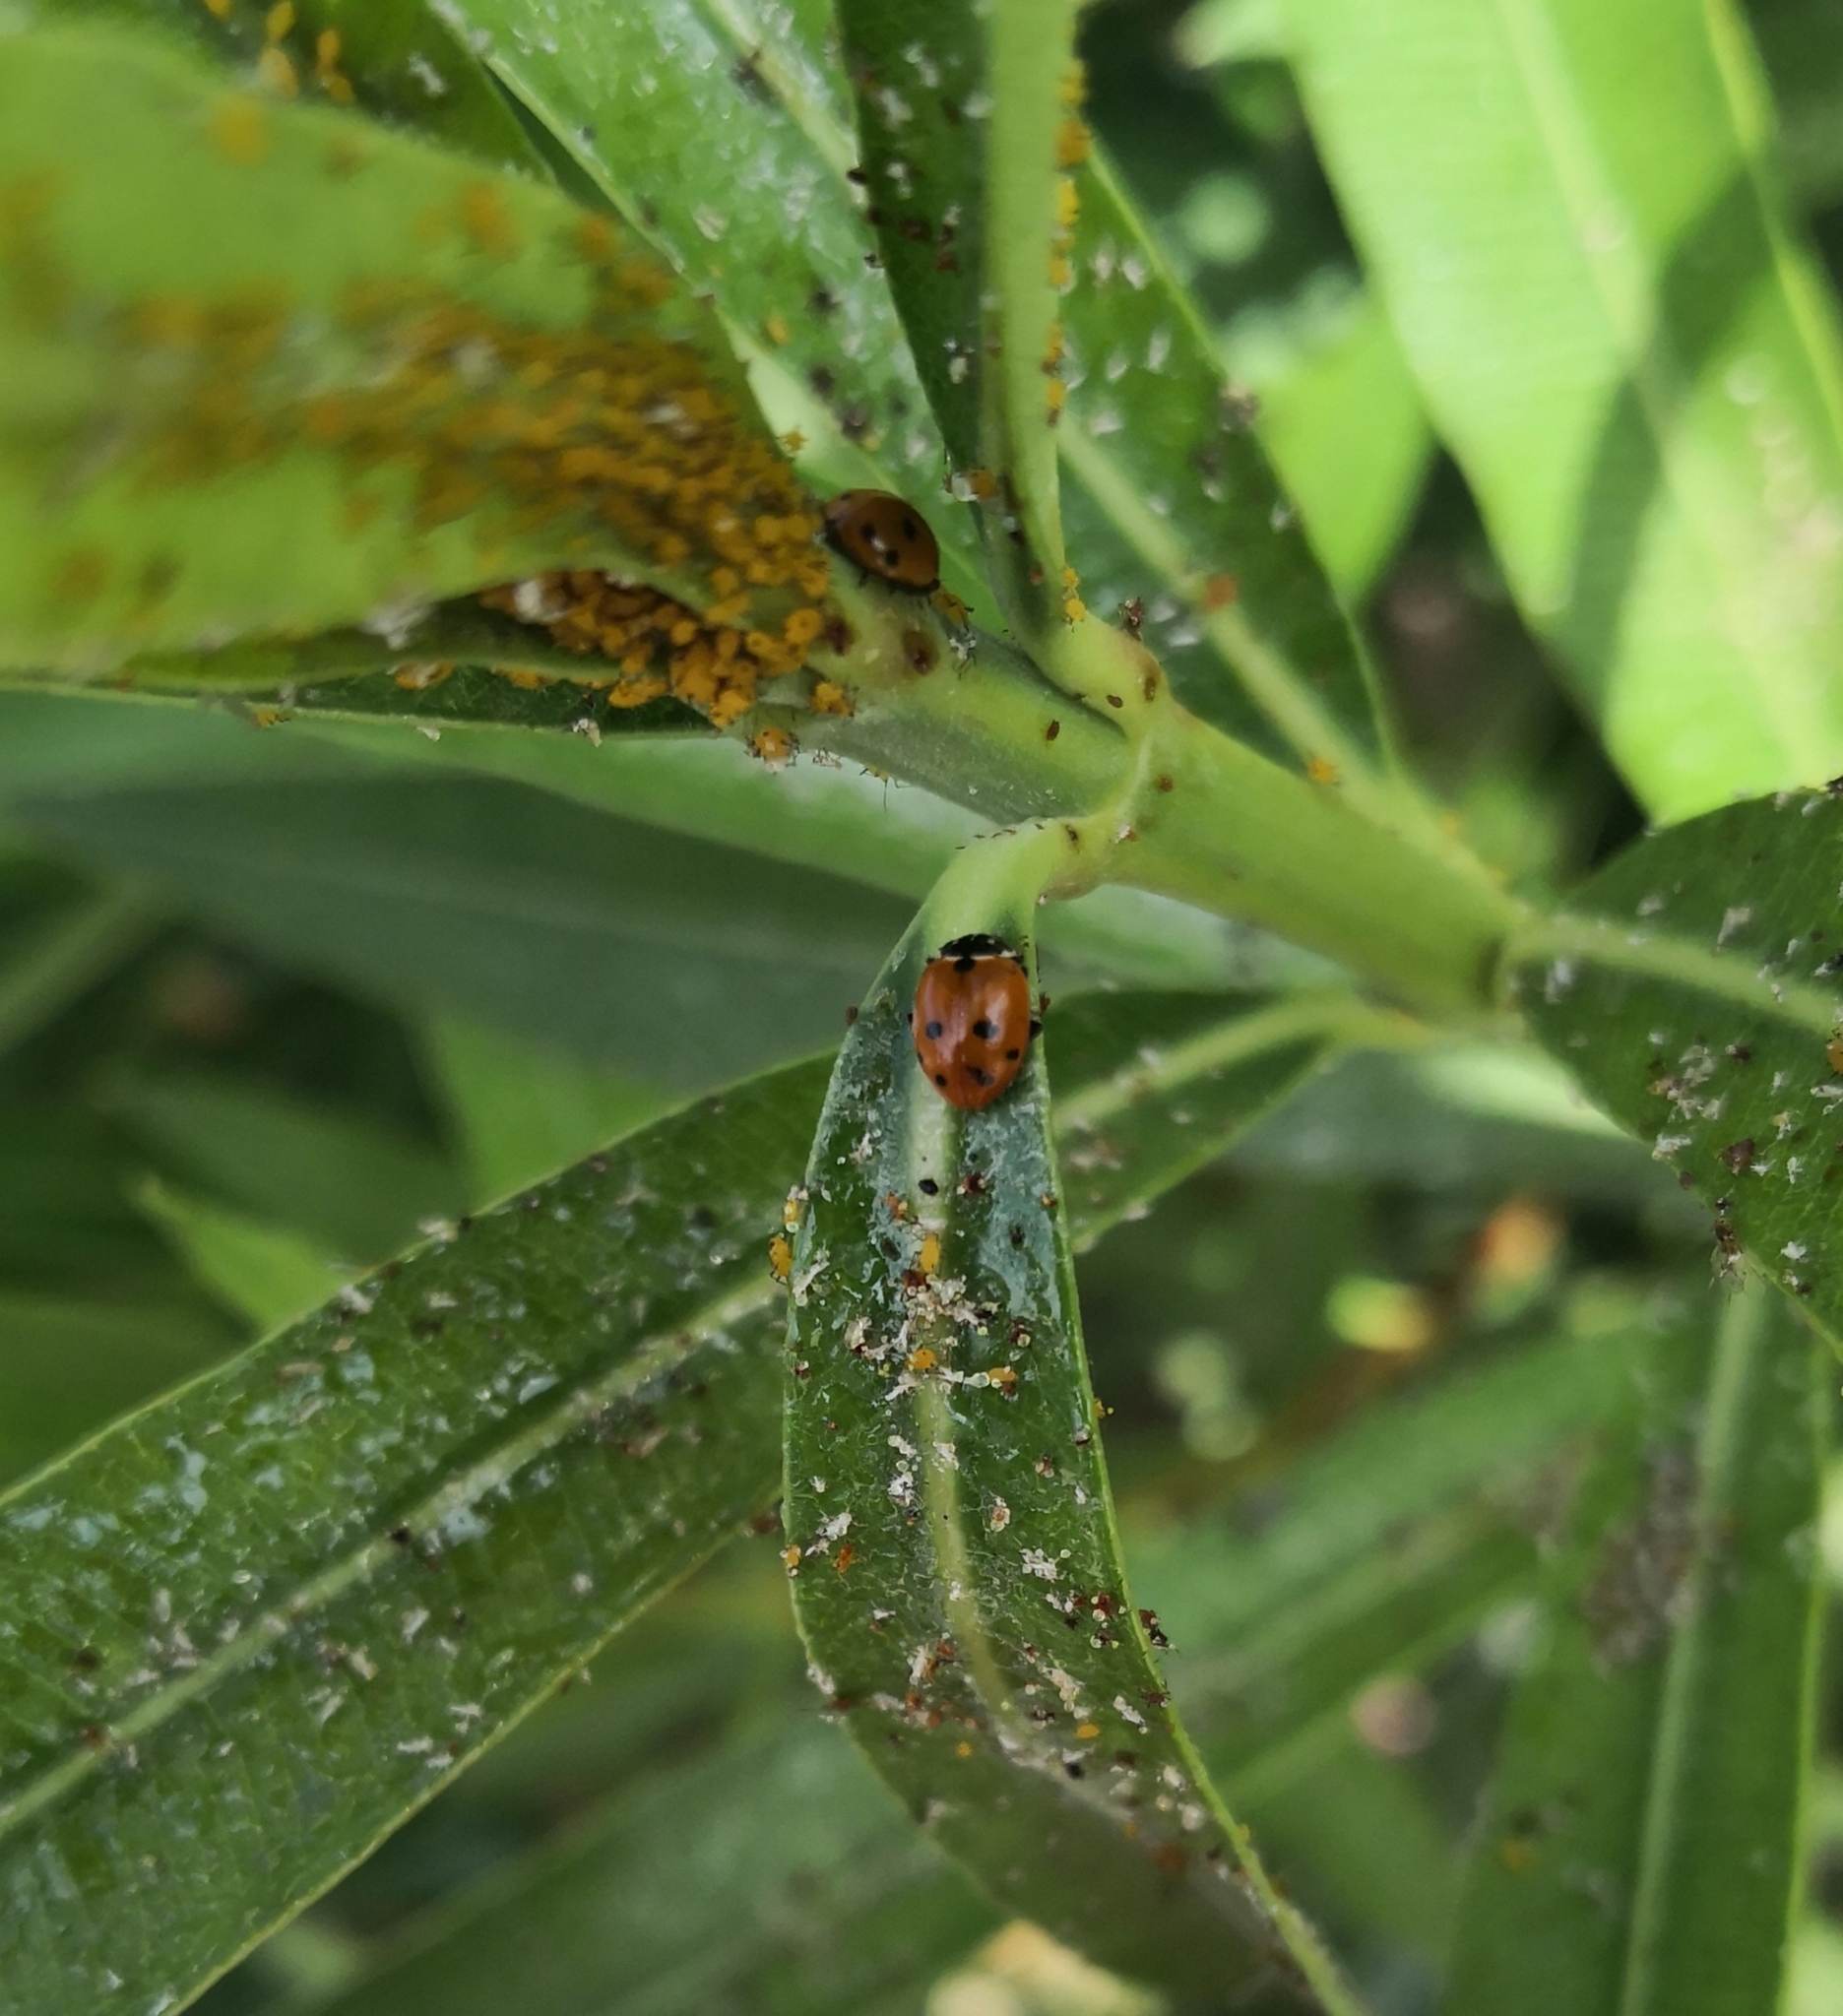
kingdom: Animalia
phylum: Arthropoda
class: Insecta
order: Coleoptera
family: Coccinellidae
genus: Hippodamia
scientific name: Hippodamia variegata
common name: Ladybird beetle
